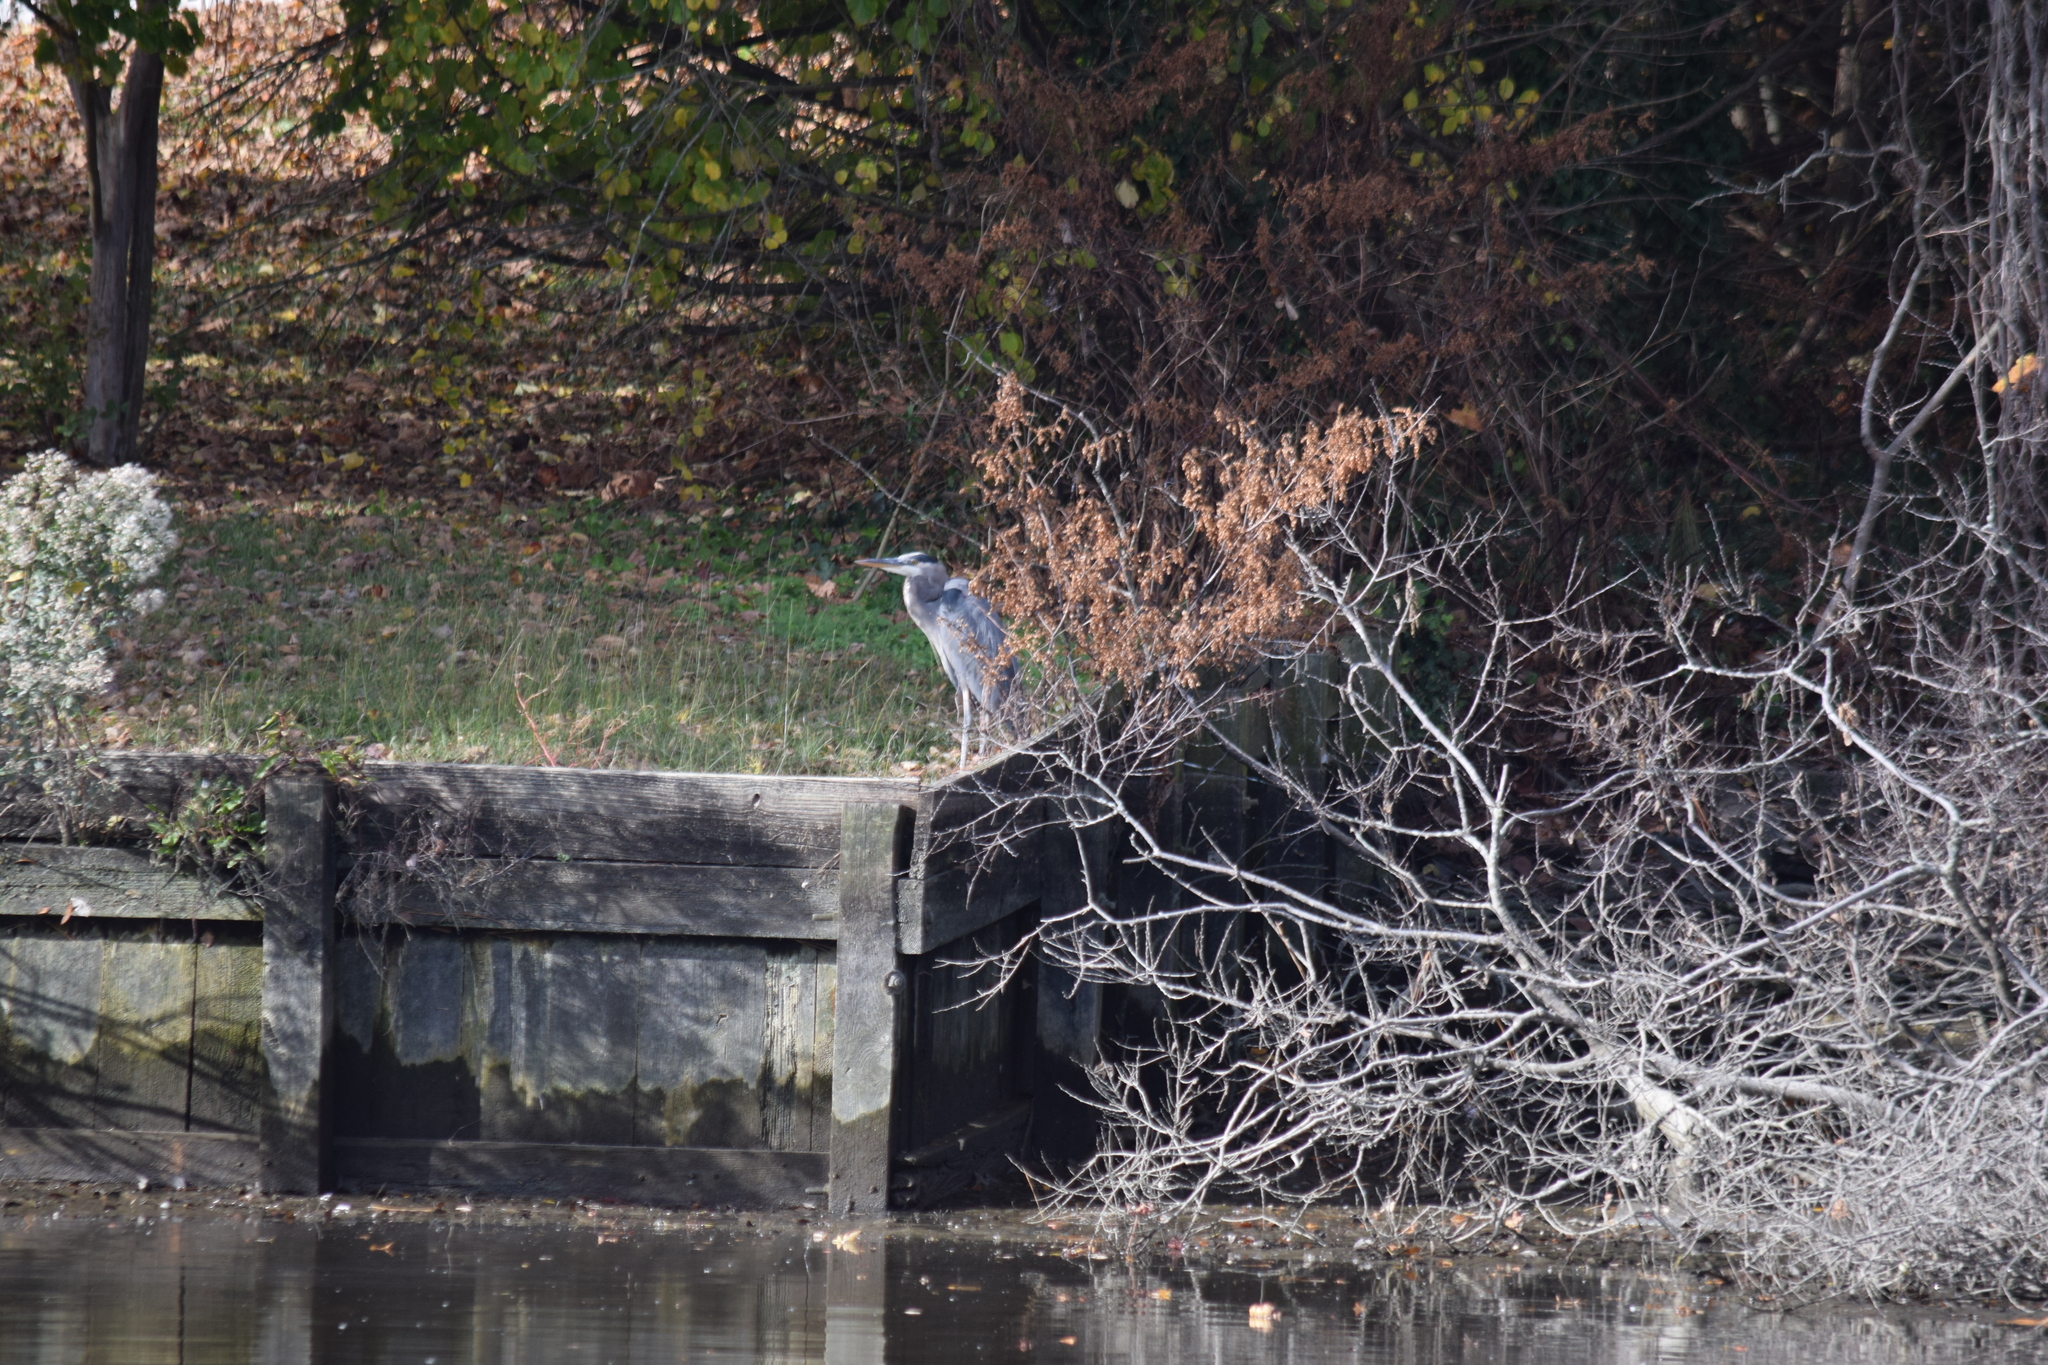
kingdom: Animalia
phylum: Chordata
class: Aves
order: Pelecaniformes
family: Ardeidae
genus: Ardea
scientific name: Ardea herodias
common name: Great blue heron
